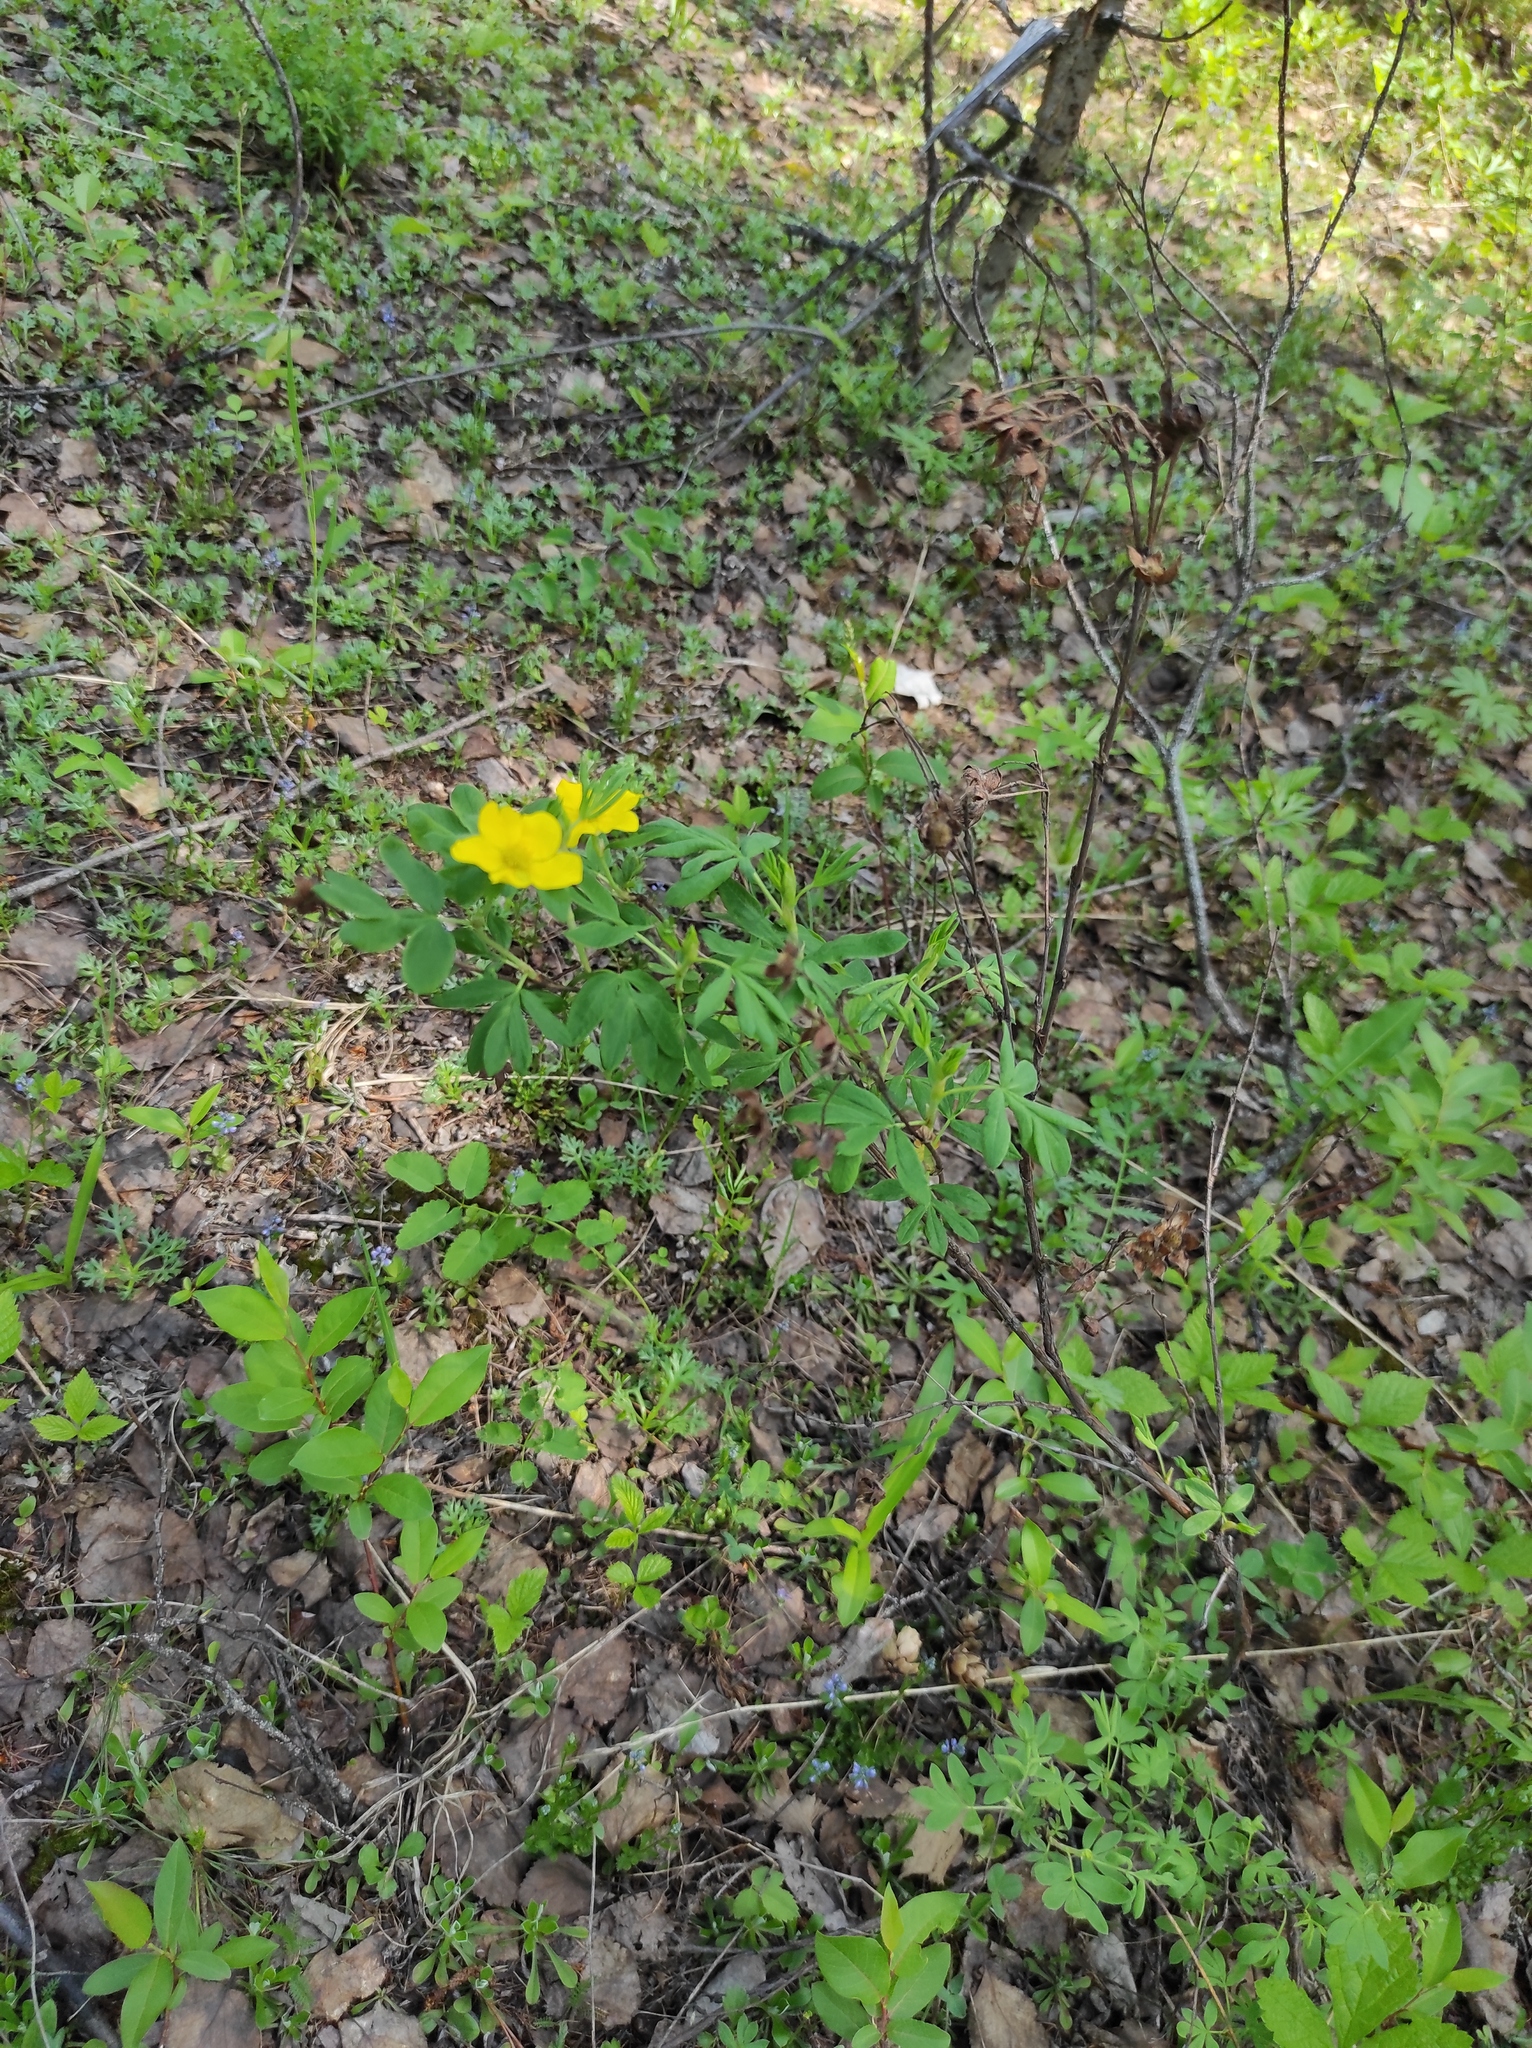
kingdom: Plantae
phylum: Tracheophyta
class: Magnoliopsida
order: Rosales
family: Rosaceae
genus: Dasiphora
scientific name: Dasiphora fruticosa
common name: Shrubby cinquefoil
